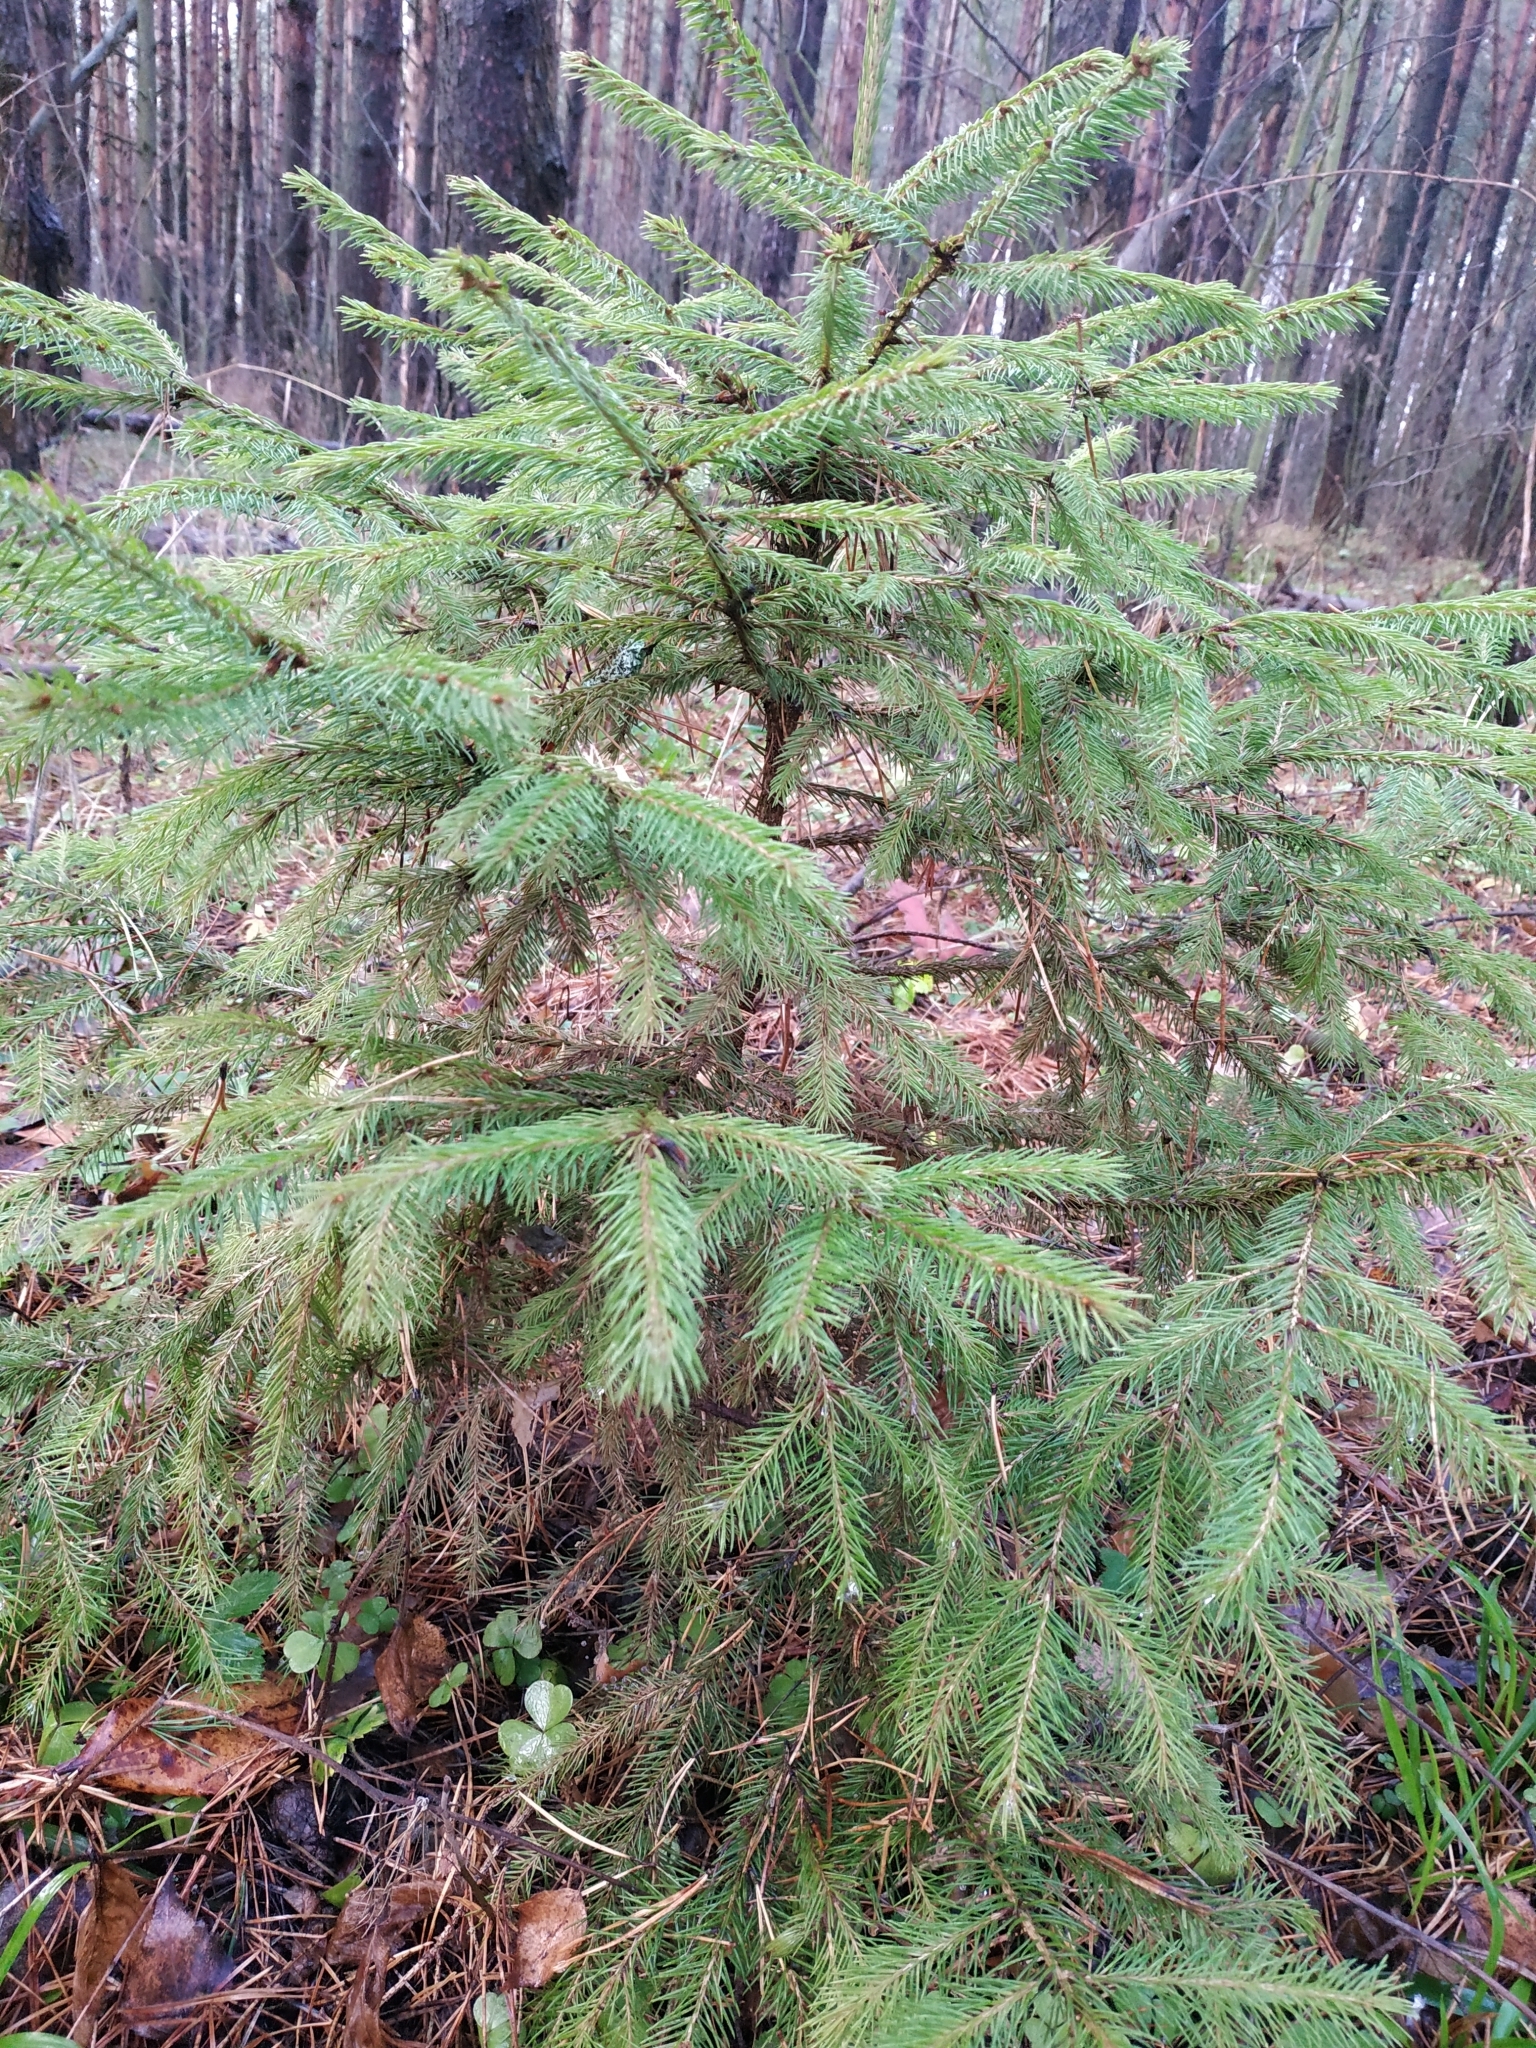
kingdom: Plantae
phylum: Tracheophyta
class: Pinopsida
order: Pinales
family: Pinaceae
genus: Picea
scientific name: Picea abies
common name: Norway spruce
